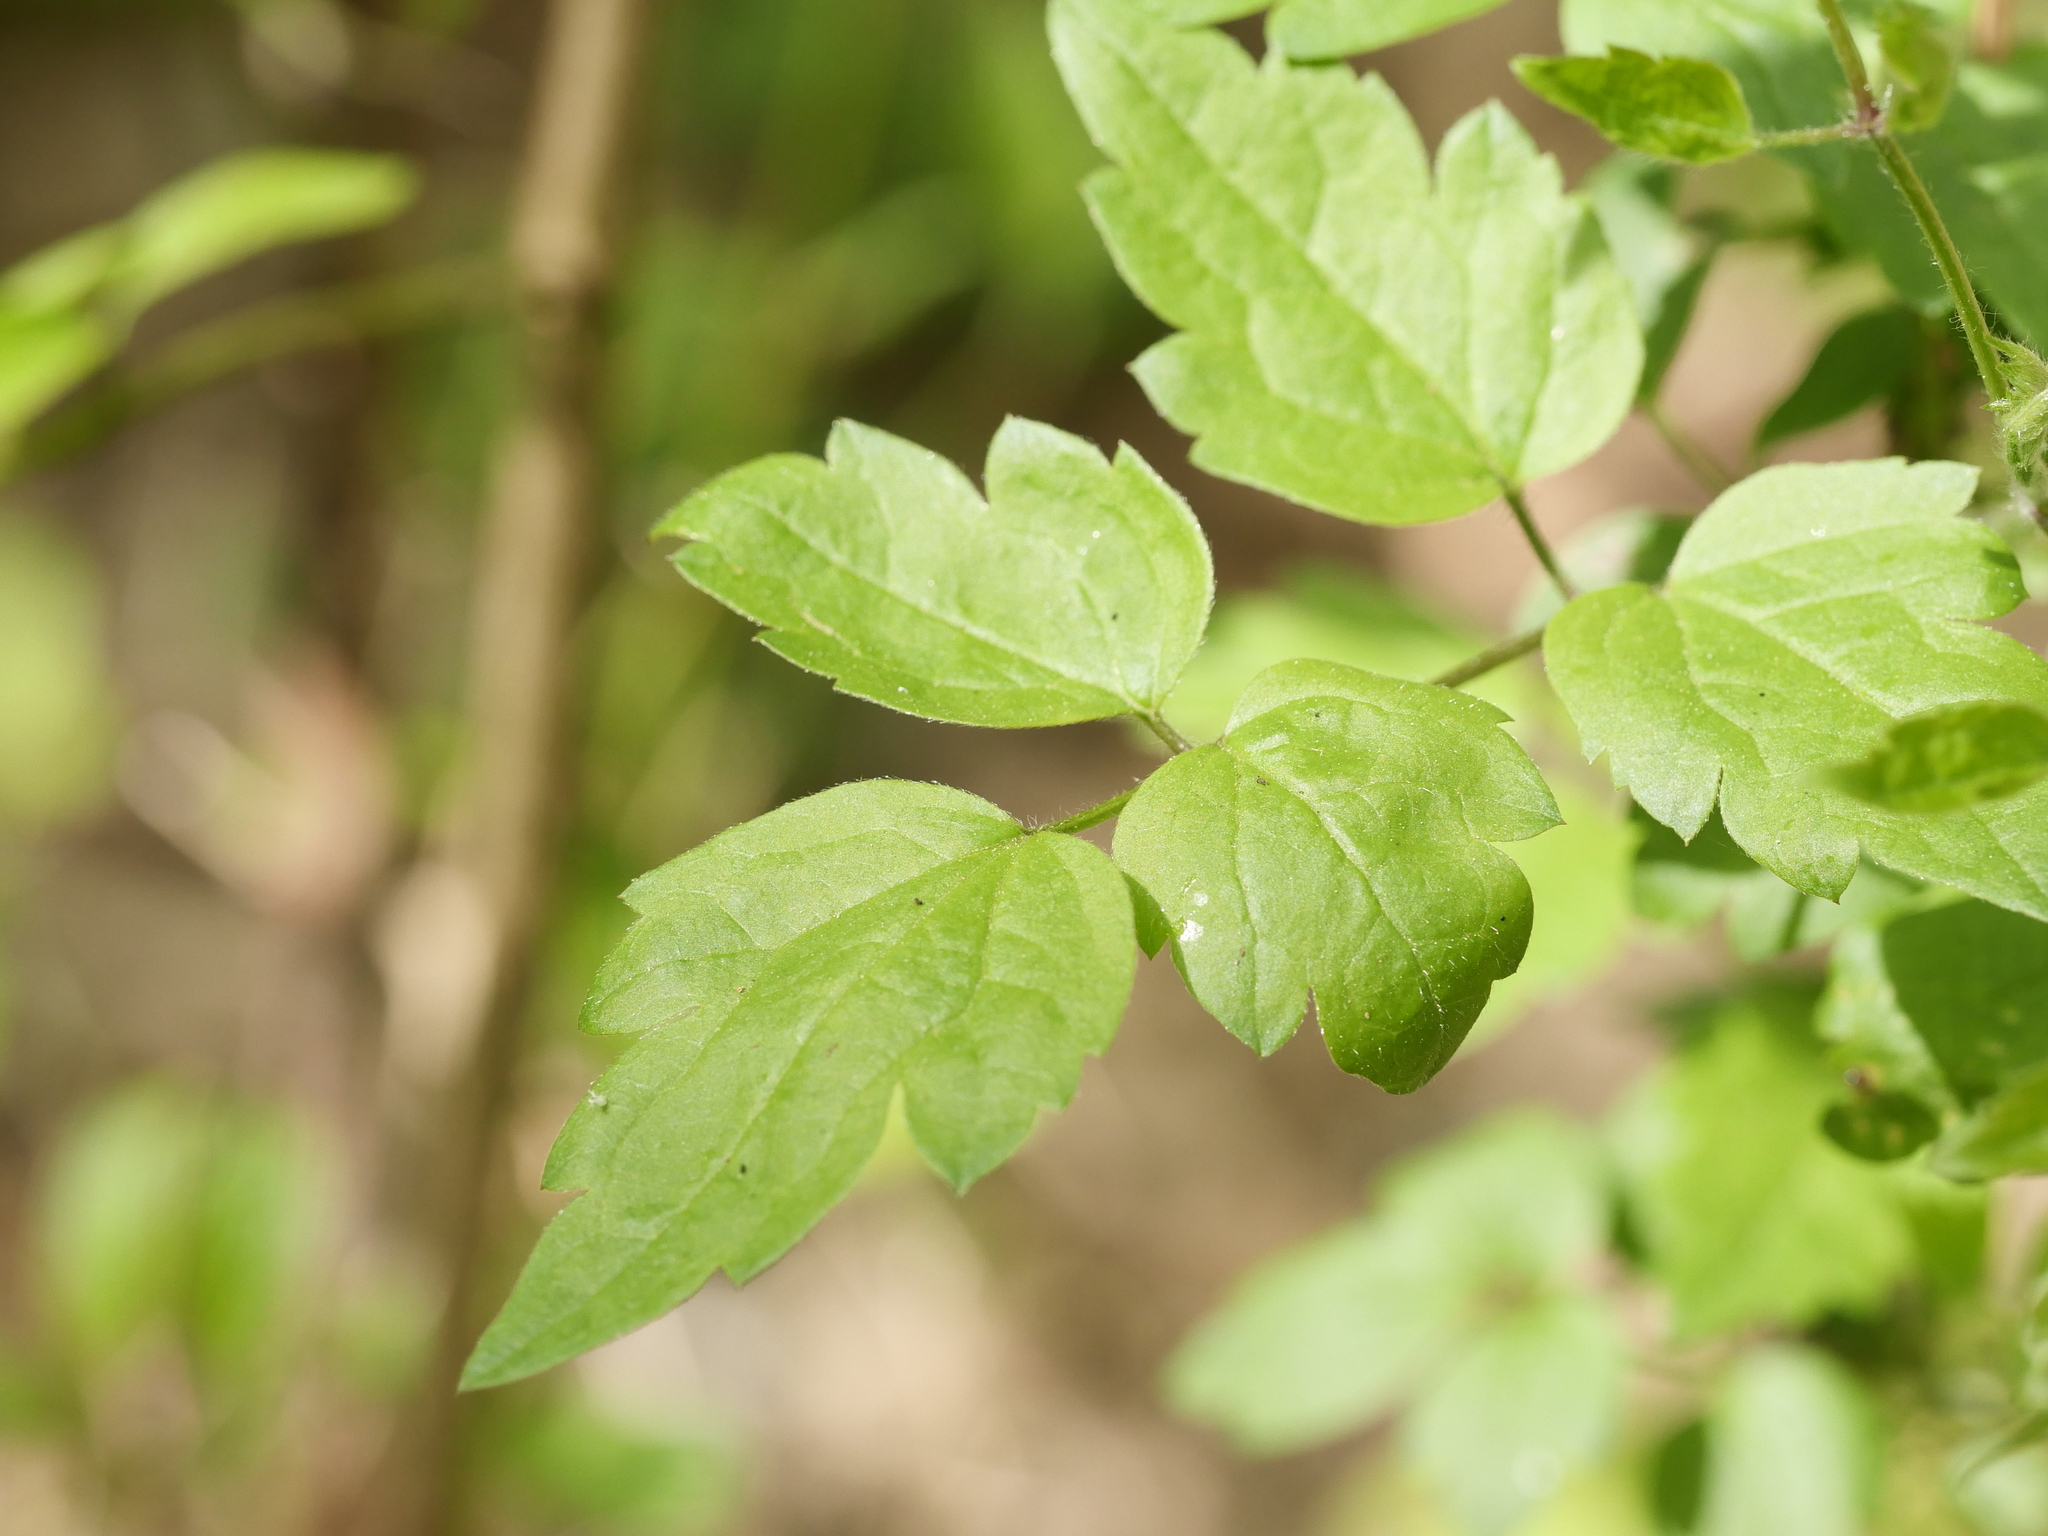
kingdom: Plantae
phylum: Tracheophyta
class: Magnoliopsida
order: Ranunculales
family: Ranunculaceae
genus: Clematis
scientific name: Clematis vitalba
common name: Evergreen clematis
